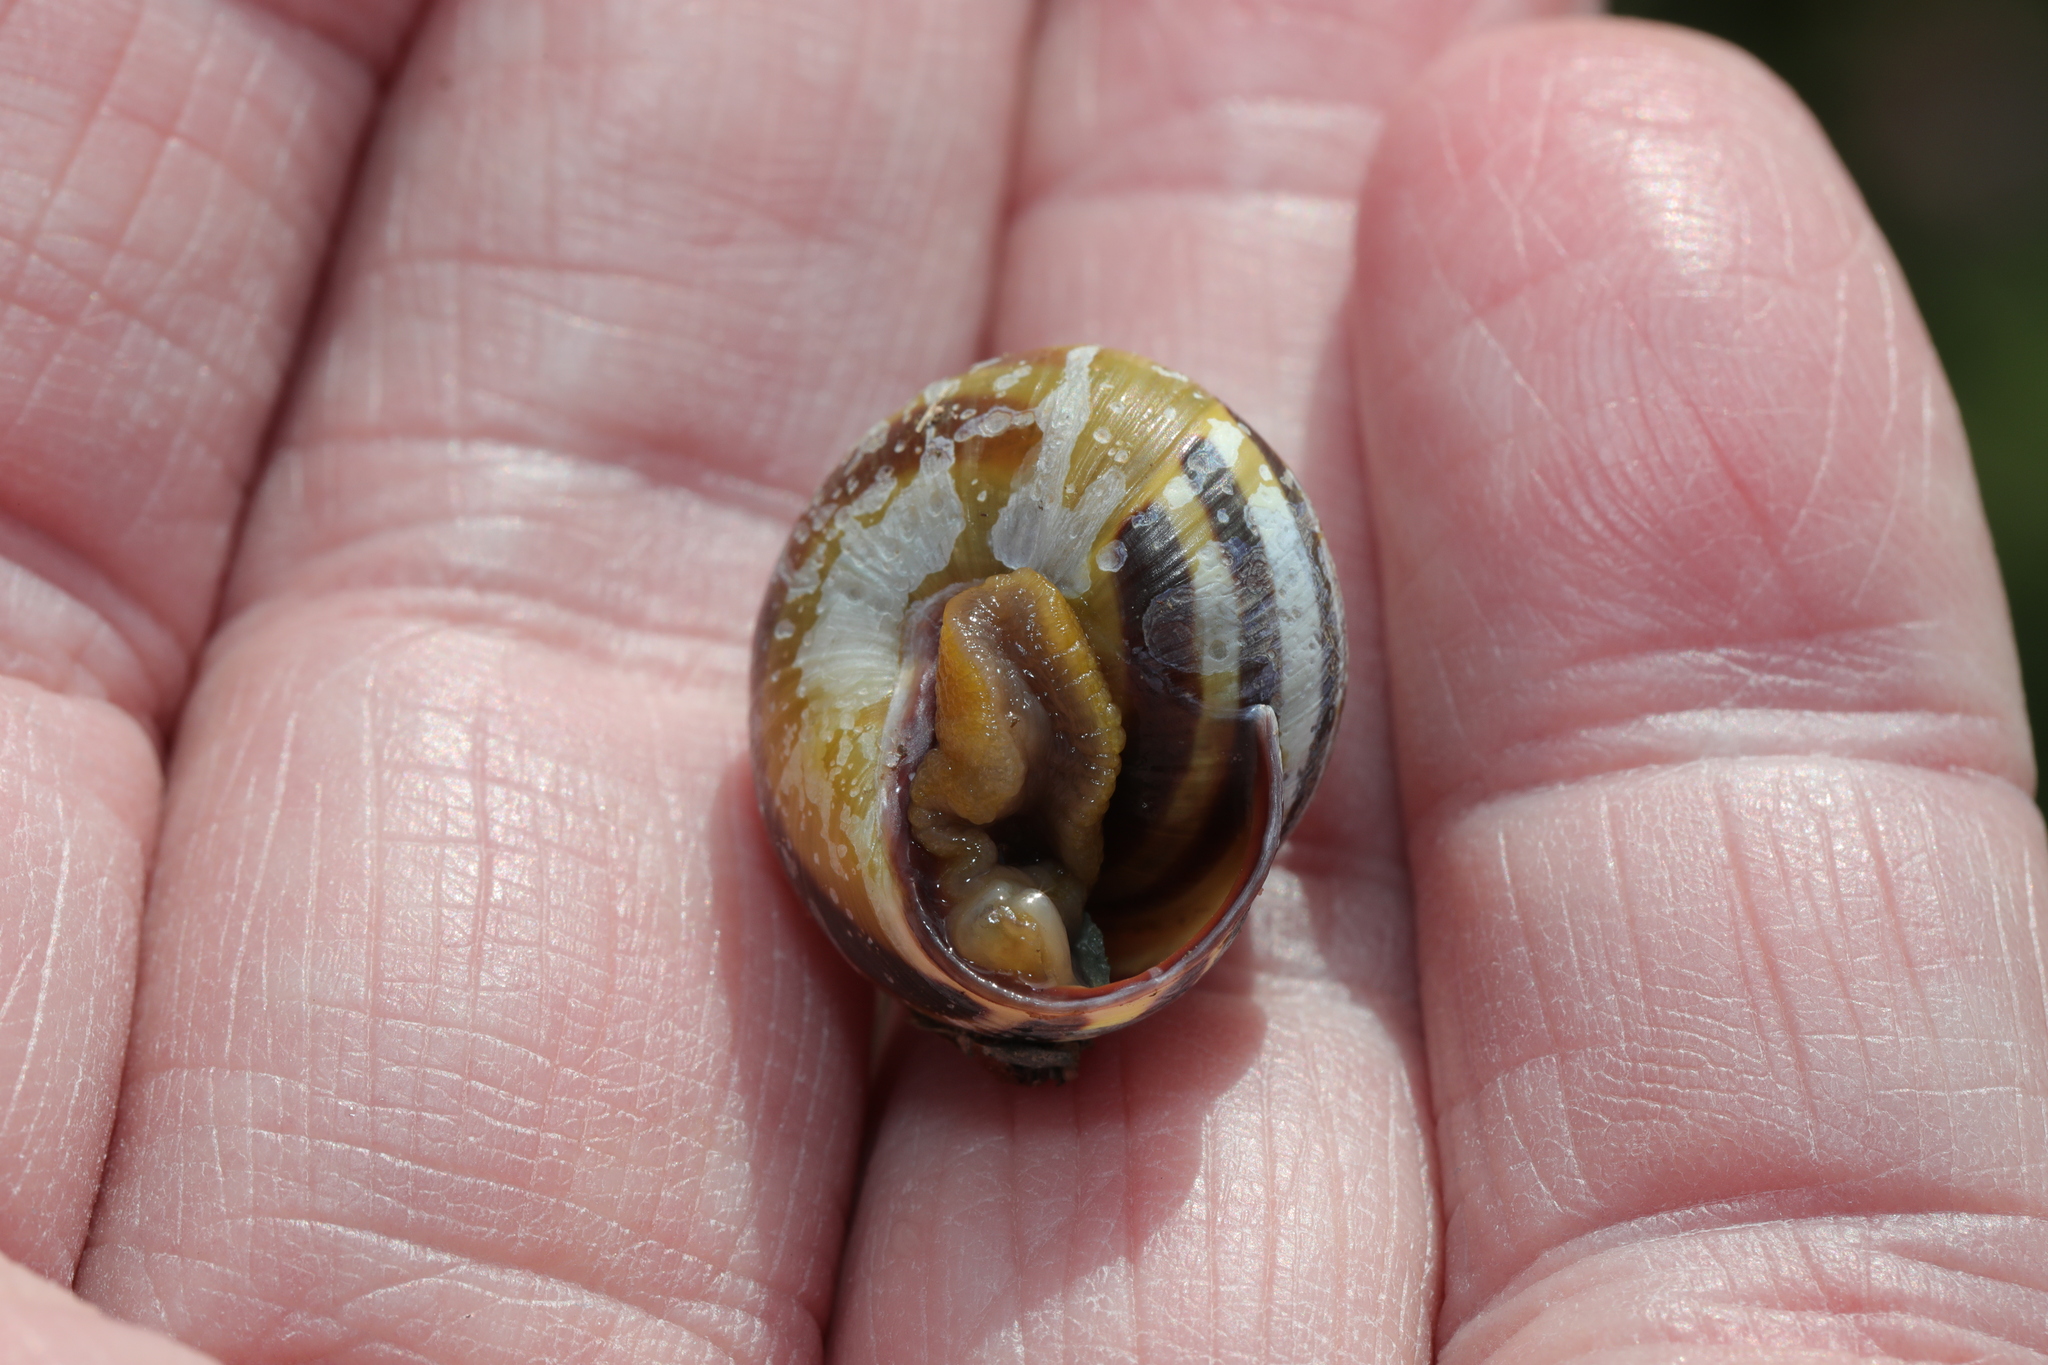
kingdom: Animalia
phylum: Mollusca
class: Gastropoda
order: Stylommatophora
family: Helicidae
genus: Cepaea
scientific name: Cepaea nemoralis
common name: Grovesnail
